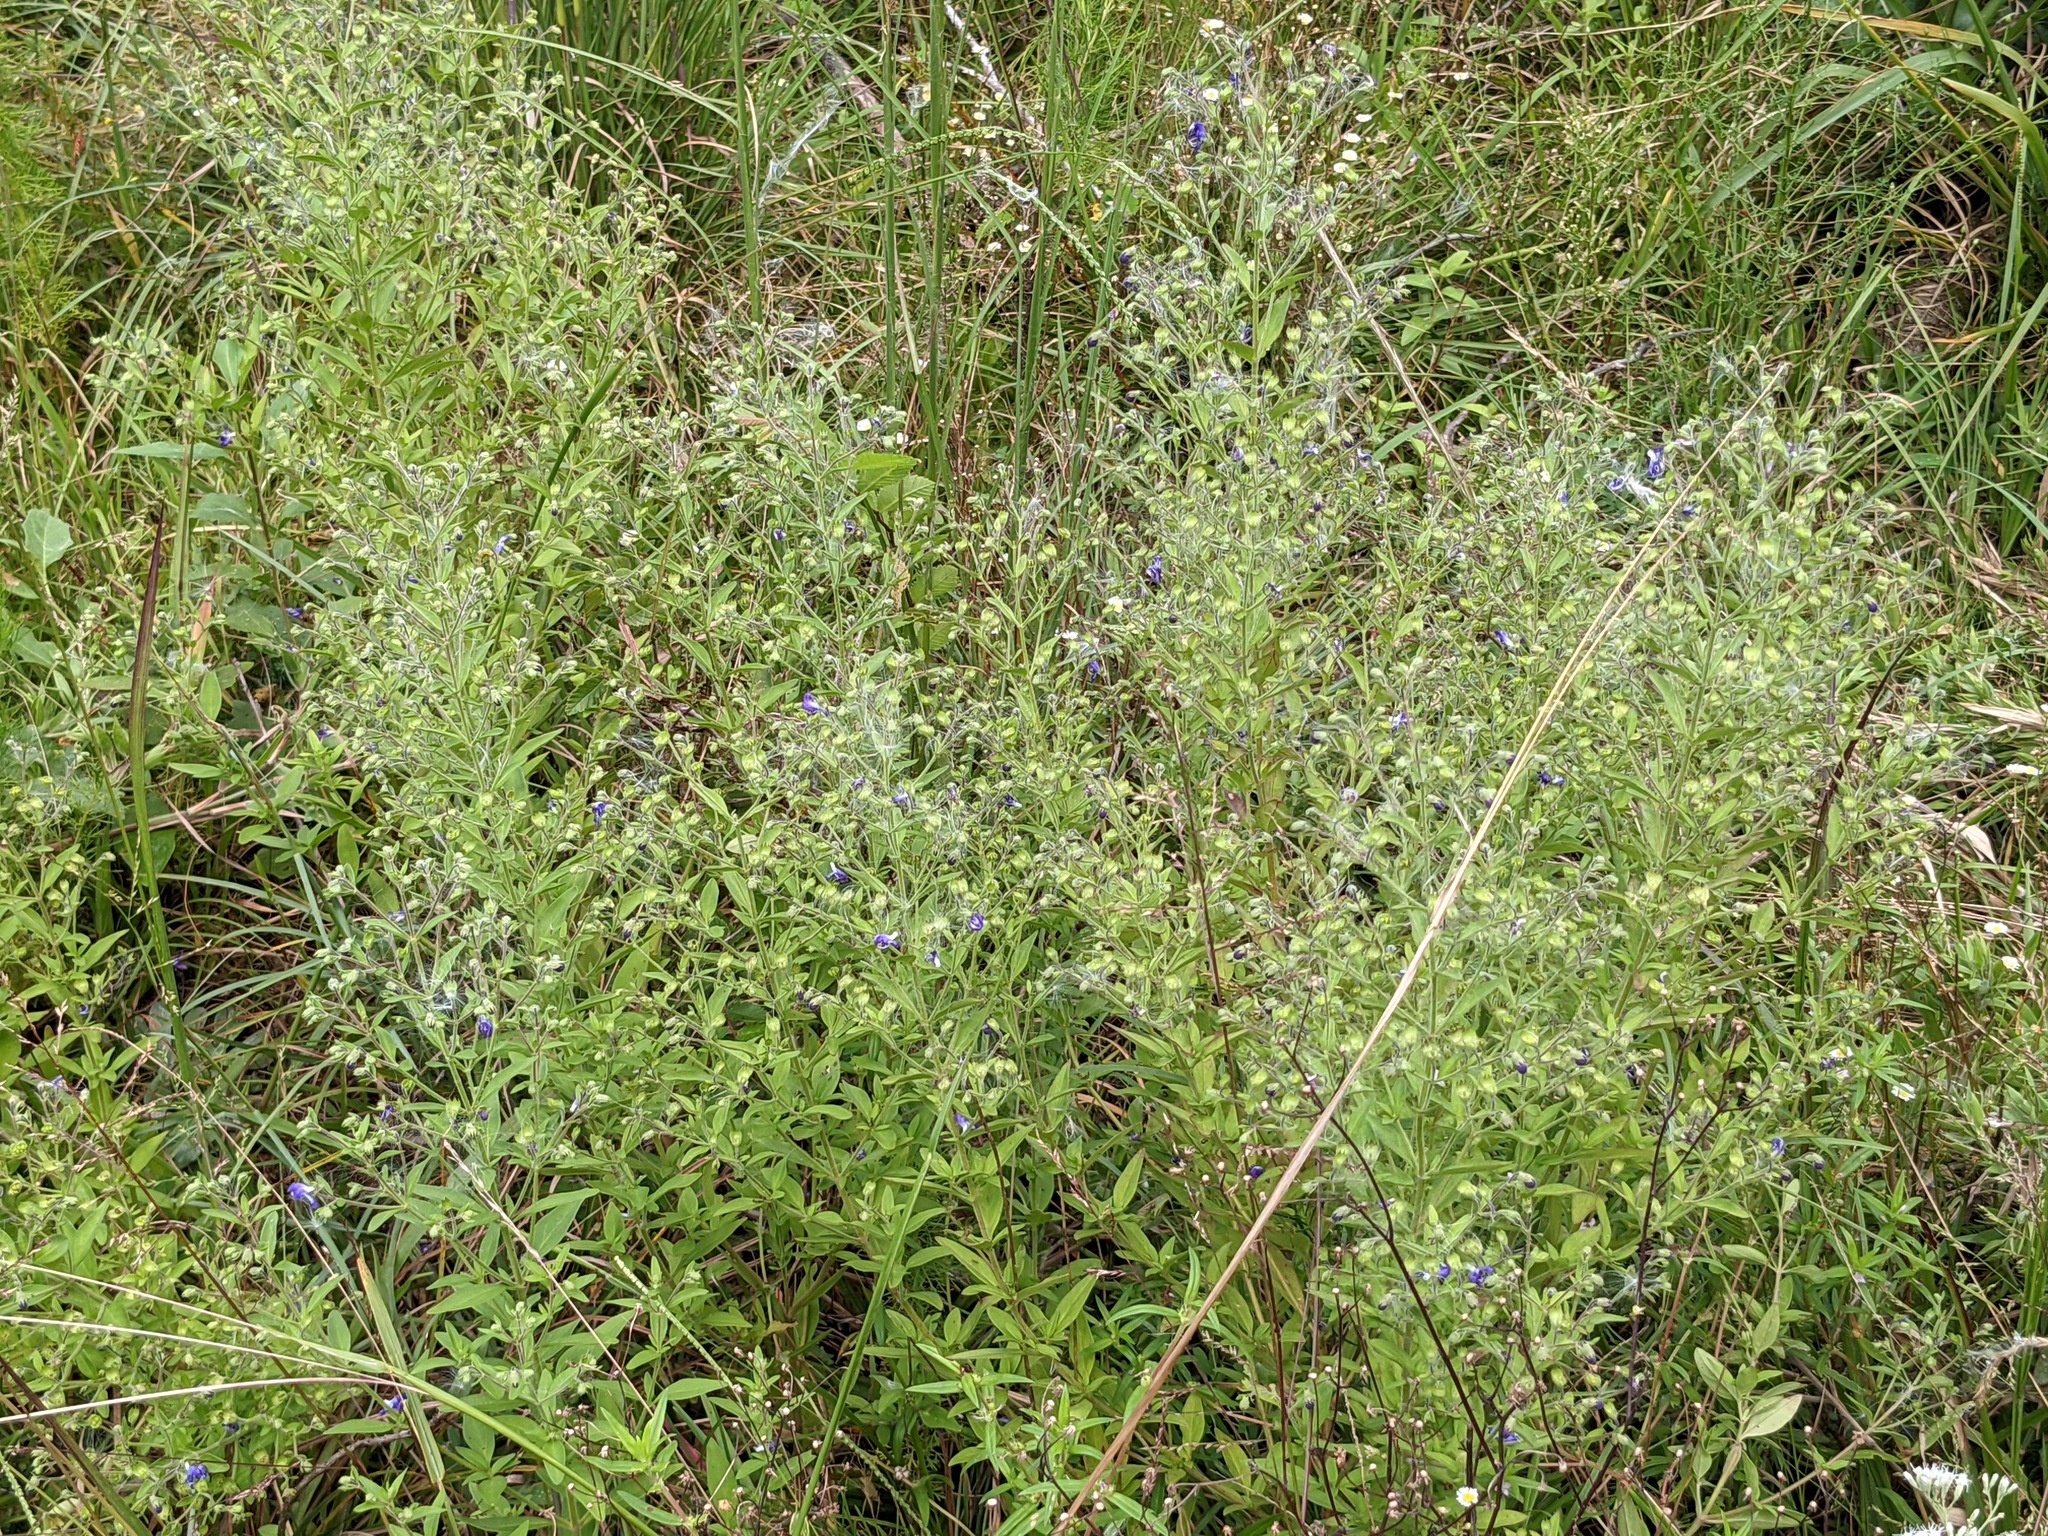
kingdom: Plantae
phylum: Tracheophyta
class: Magnoliopsida
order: Lamiales
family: Lamiaceae
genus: Trichostema
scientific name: Trichostema dichotomum
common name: Bastard pennyroyal
